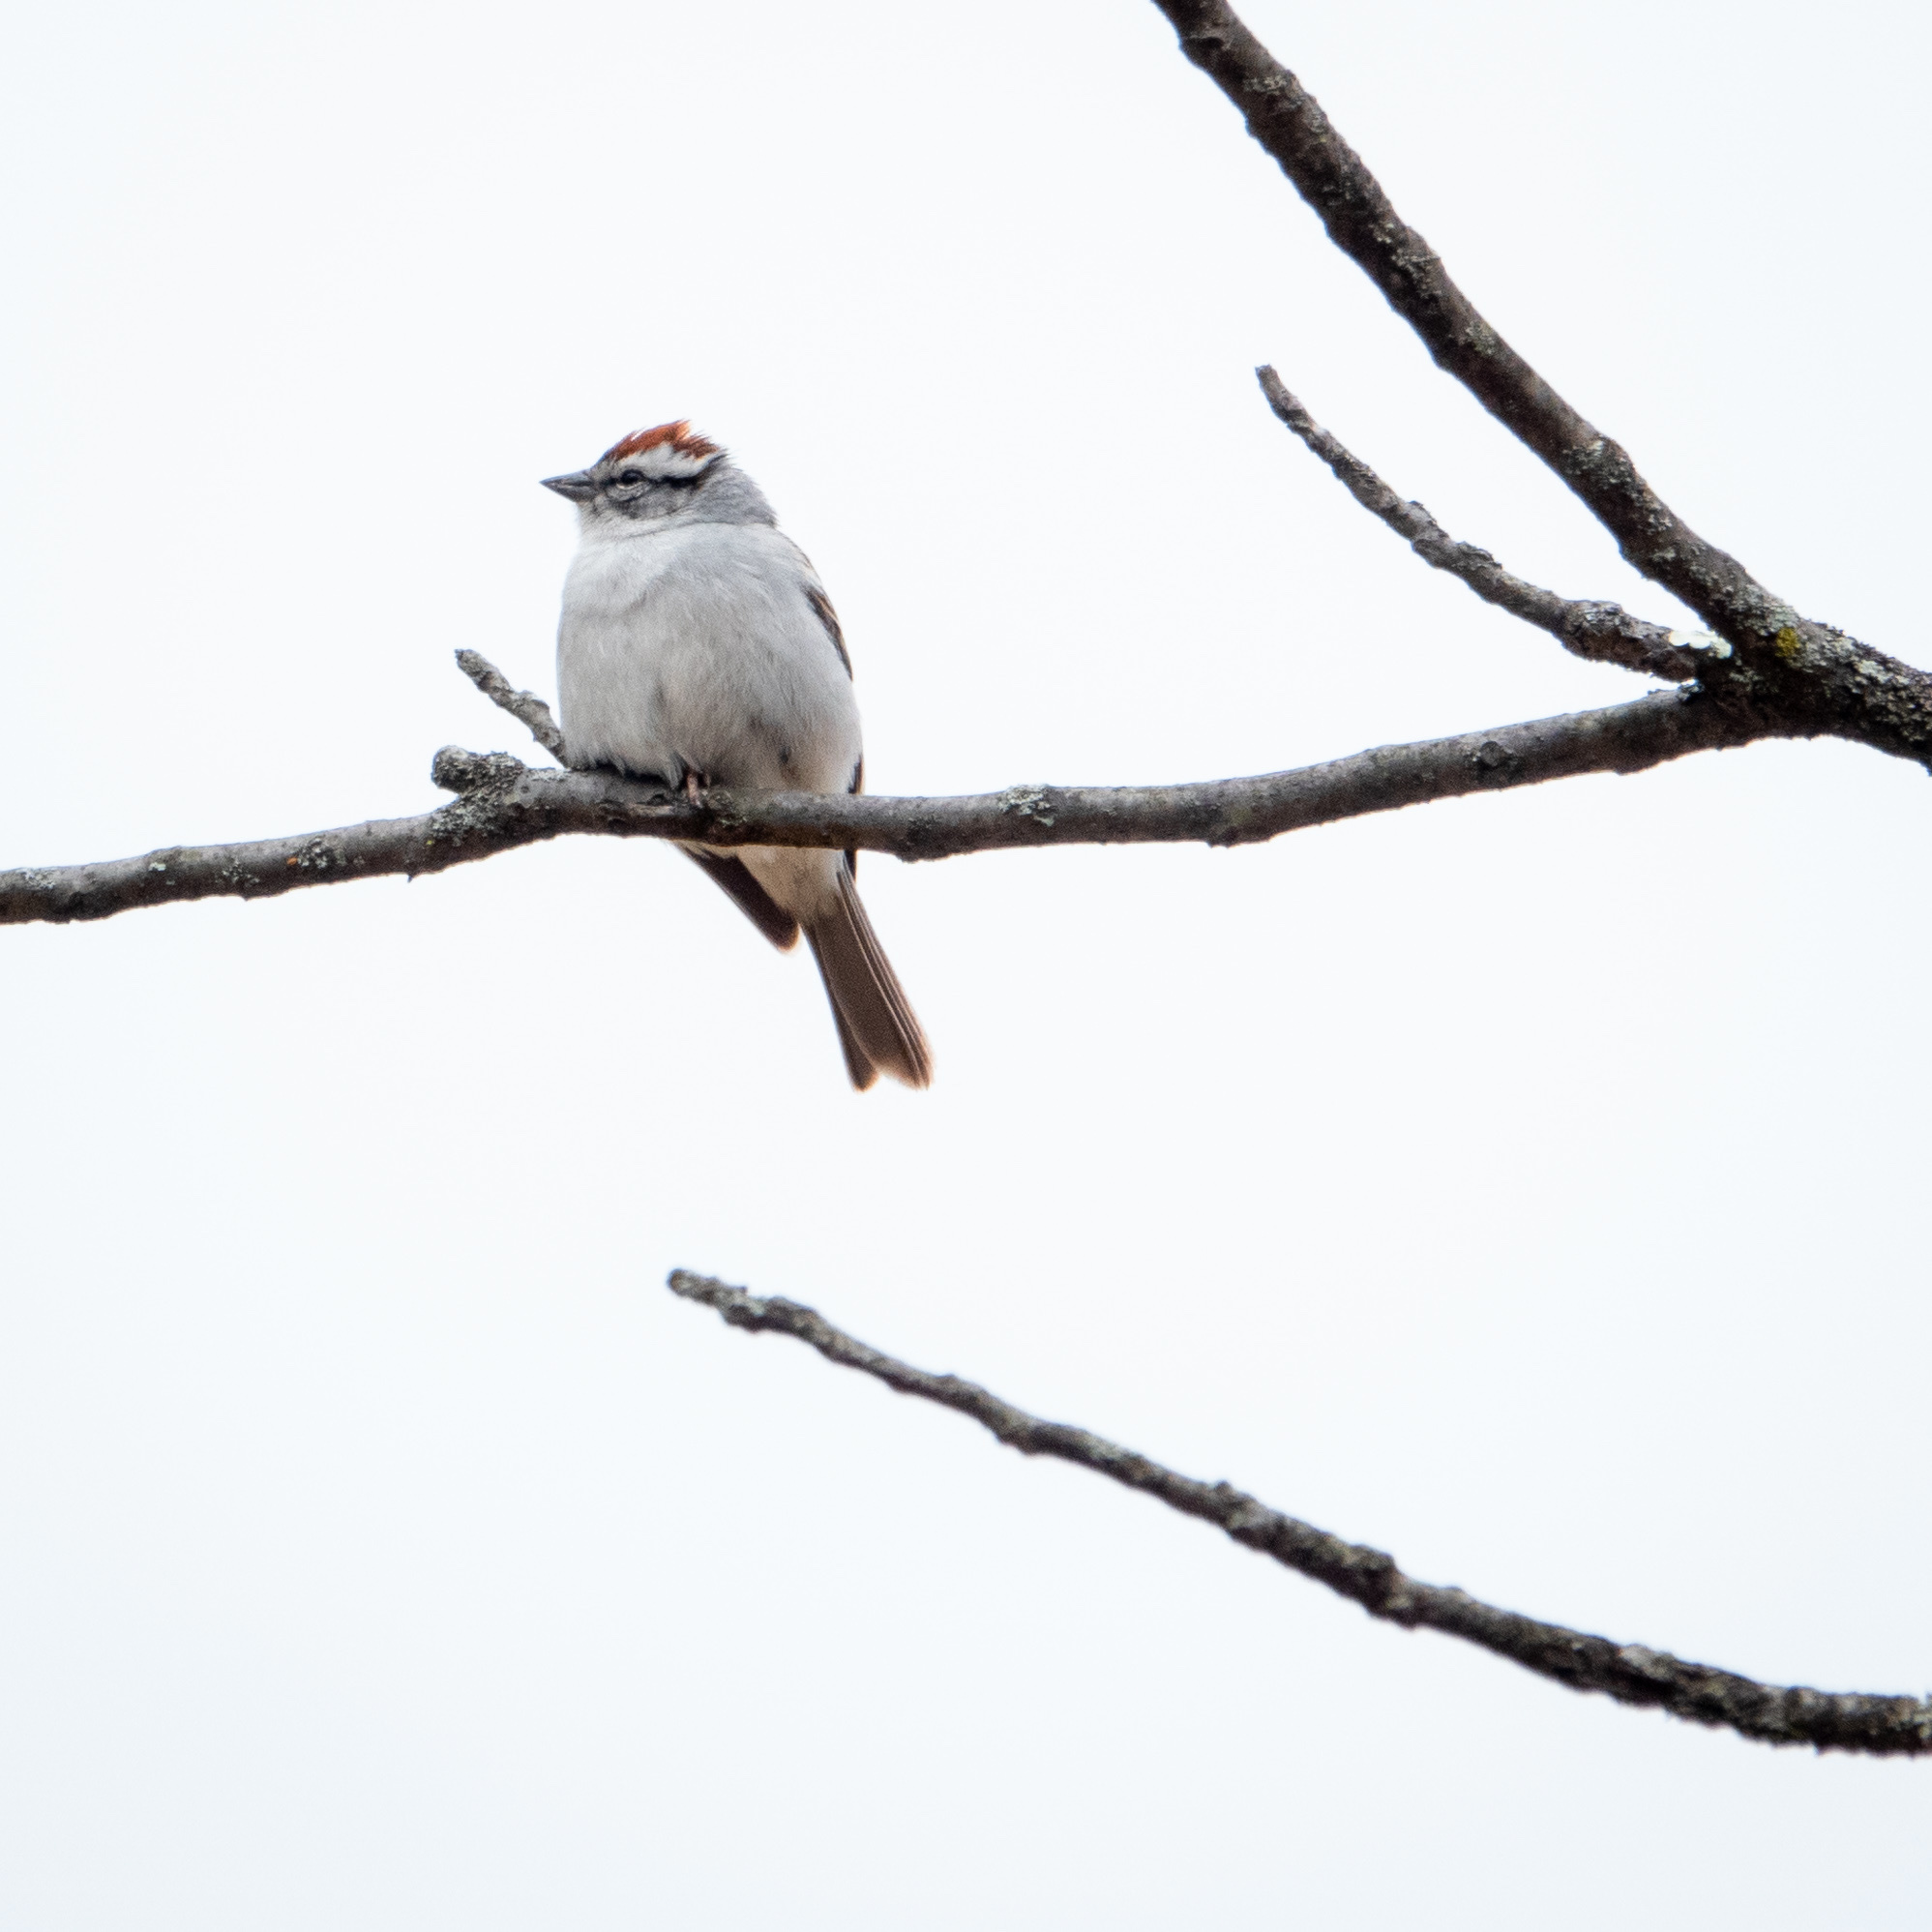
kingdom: Animalia
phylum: Chordata
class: Aves
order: Passeriformes
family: Passerellidae
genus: Spizella
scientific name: Spizella passerina
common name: Chipping sparrow
